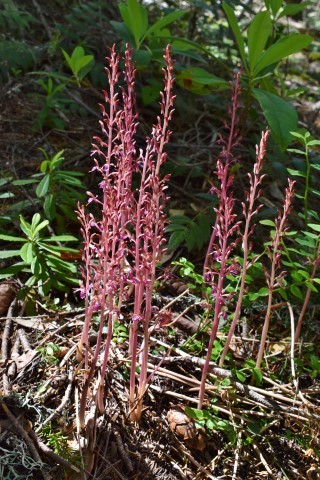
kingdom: Plantae
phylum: Tracheophyta
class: Liliopsida
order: Asparagales
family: Orchidaceae
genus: Corallorhiza
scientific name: Corallorhiza mertensiana
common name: Pacific coralroot
